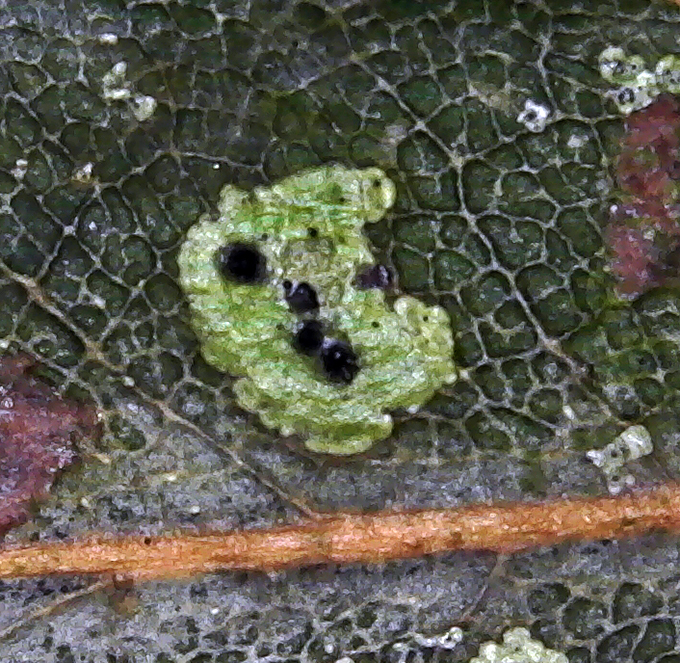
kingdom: Fungi
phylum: Ascomycota
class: Dothideomycetes
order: Strigulales
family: Strigulaceae
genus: Strigula
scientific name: Strigula fossulicola
